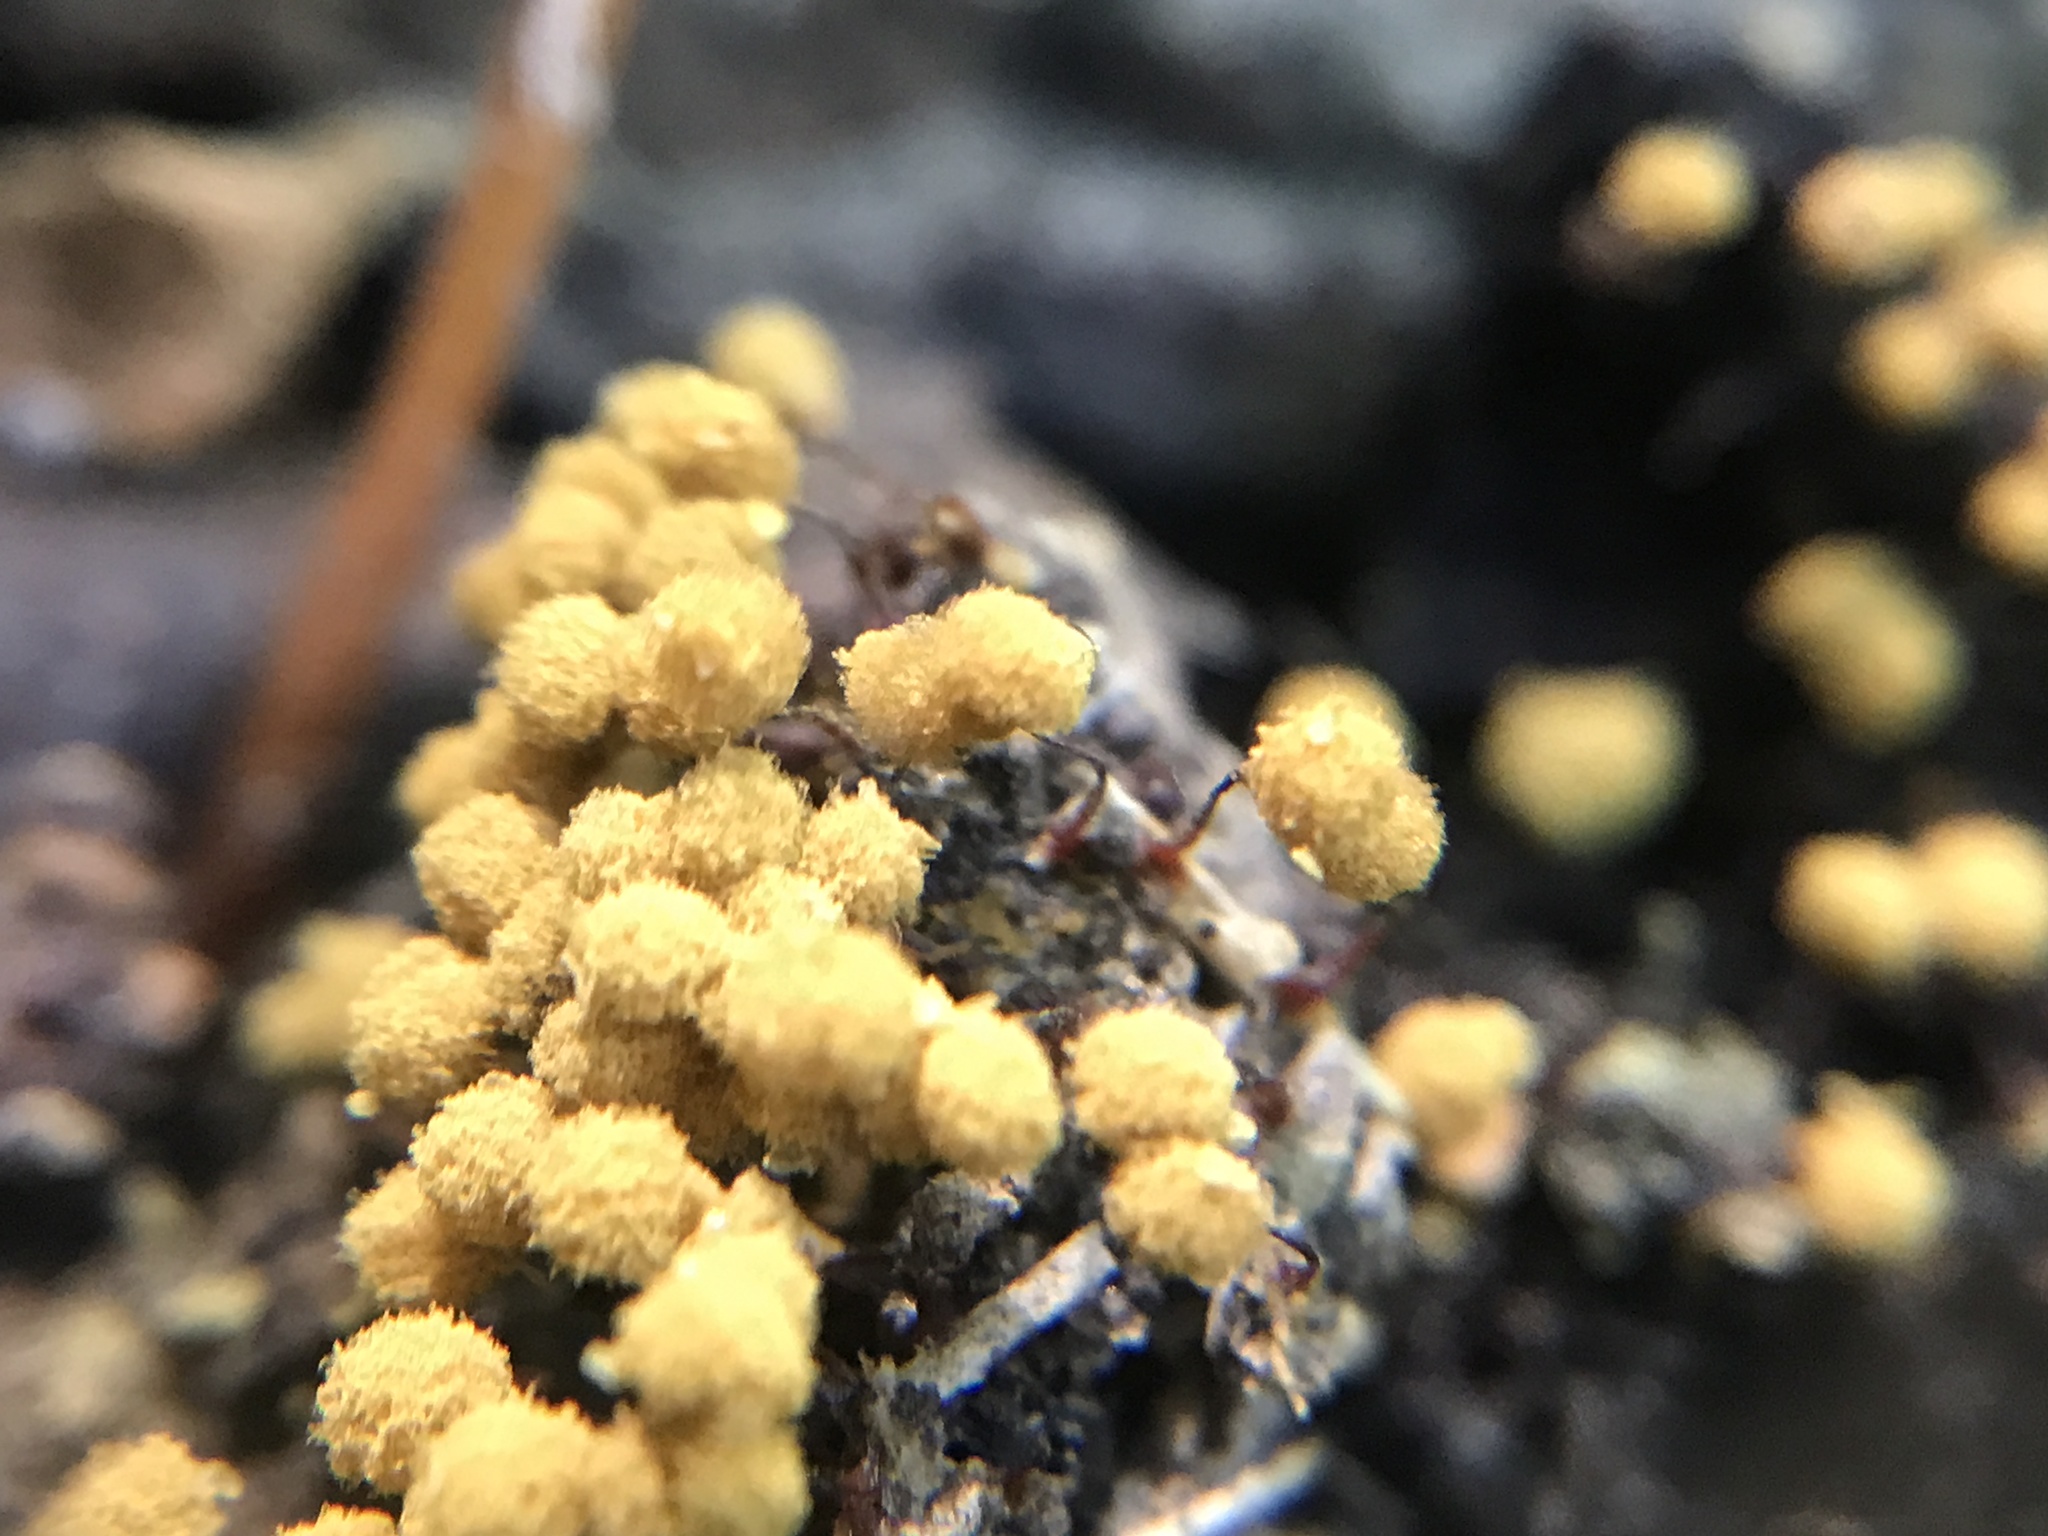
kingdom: Protozoa
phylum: Mycetozoa
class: Myxomycetes
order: Trichiales
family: Arcyriaceae
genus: Hemitrichia
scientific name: Hemitrichia calyculata
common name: Push pin slime mold
